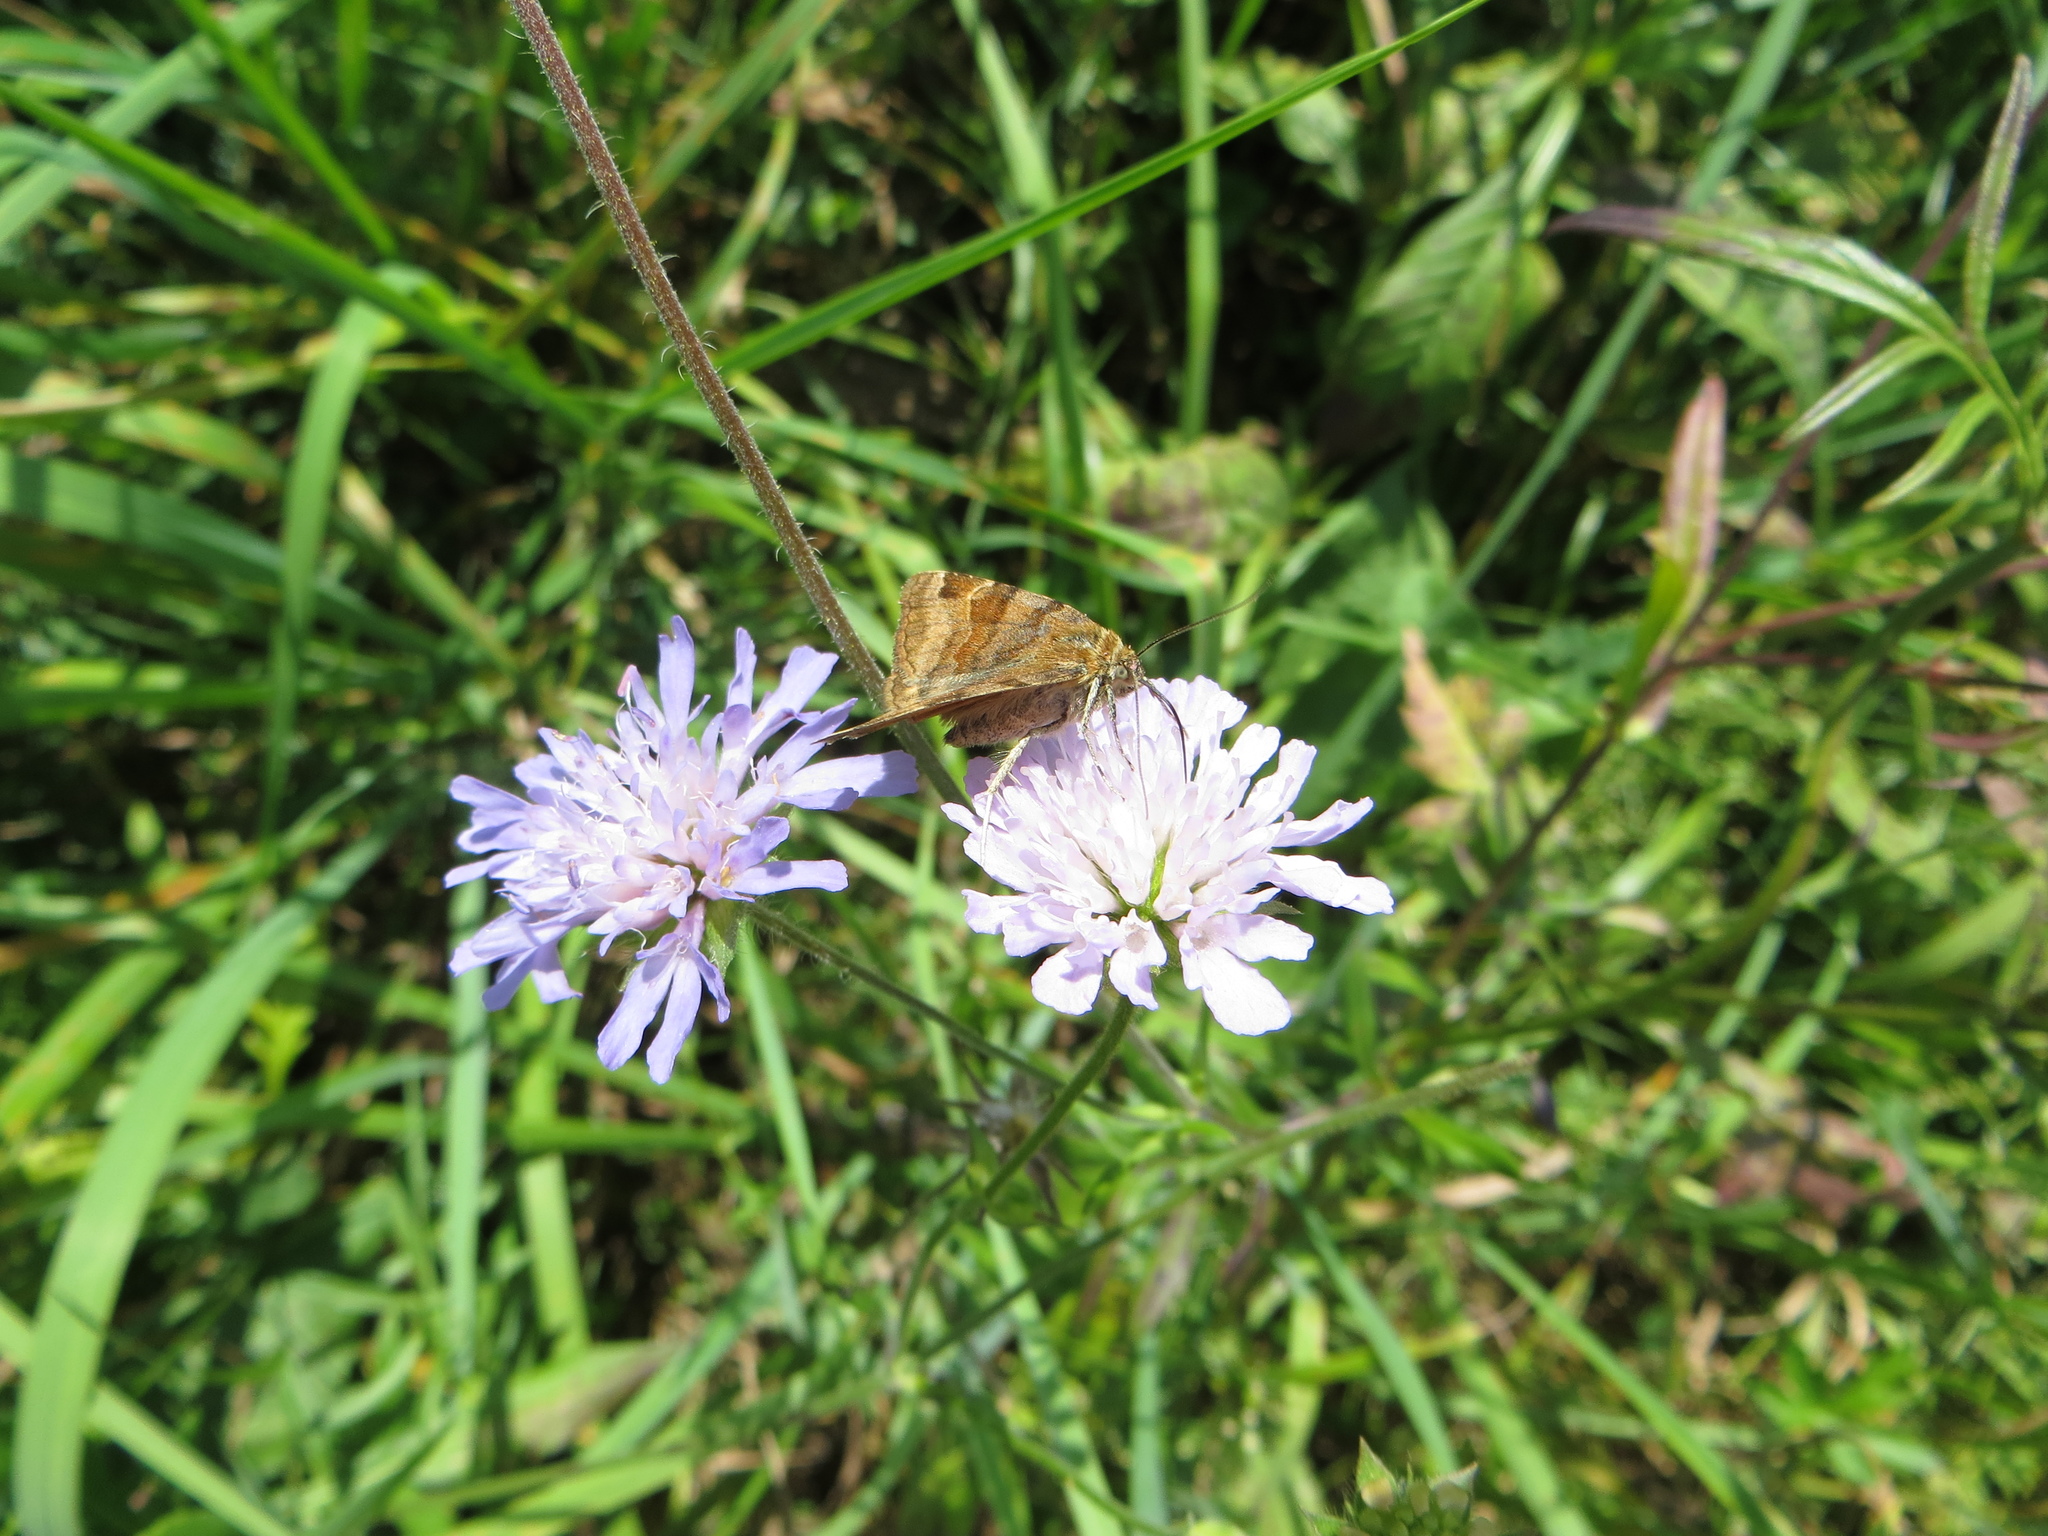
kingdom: Animalia
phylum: Arthropoda
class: Insecta
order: Lepidoptera
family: Erebidae
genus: Euclidia
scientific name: Euclidia glyphica
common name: Burnet companion
